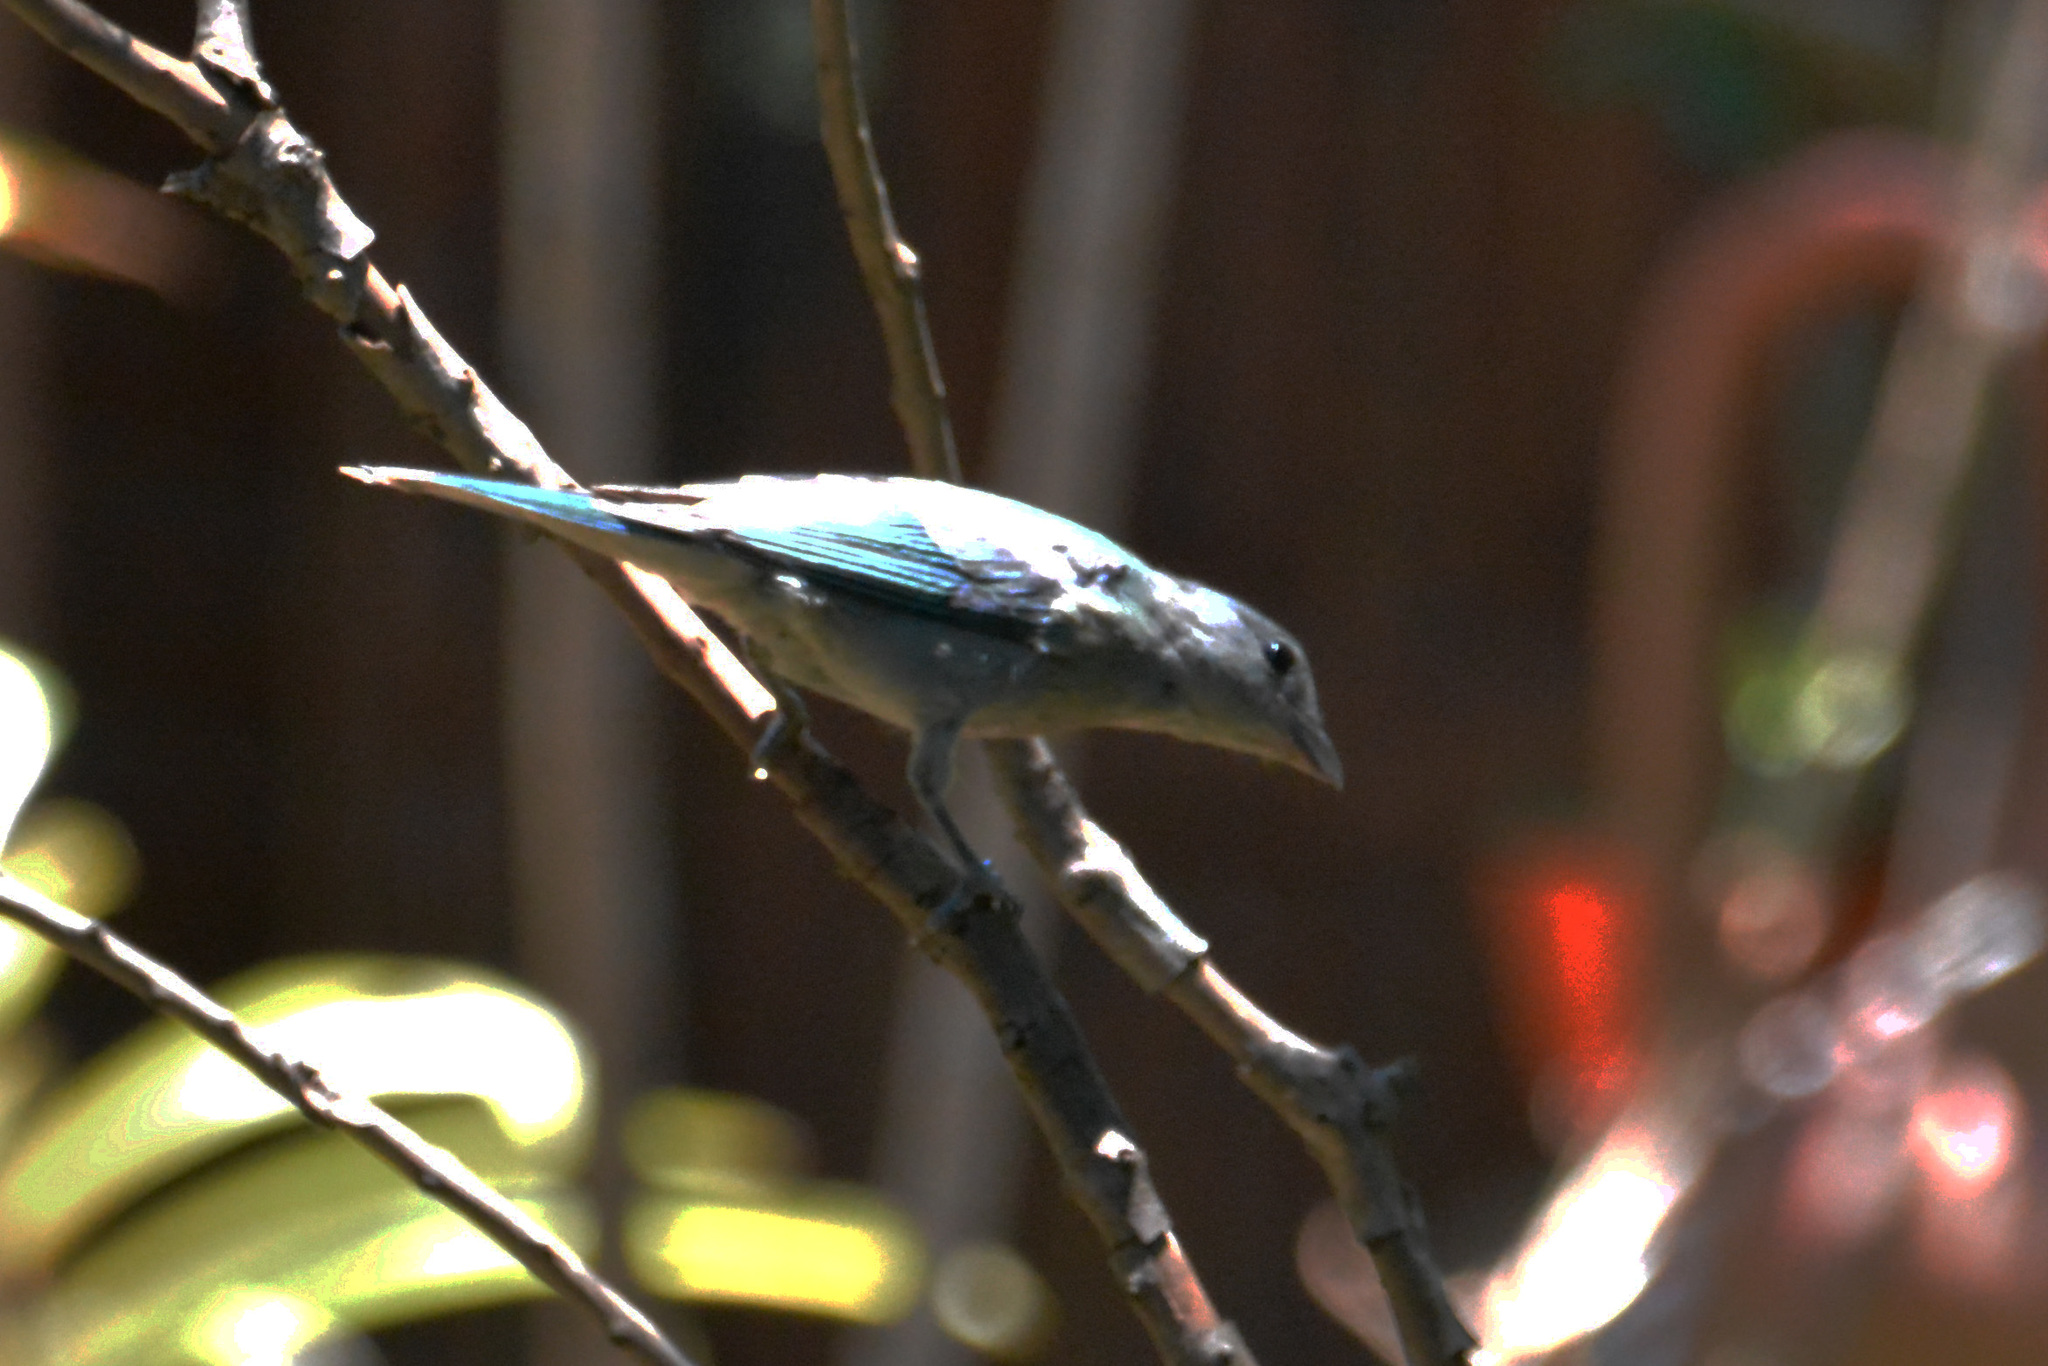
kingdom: Animalia
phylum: Chordata
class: Aves
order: Passeriformes
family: Thraupidae
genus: Thraupis
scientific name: Thraupis sayaca
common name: Sayaca tanager
